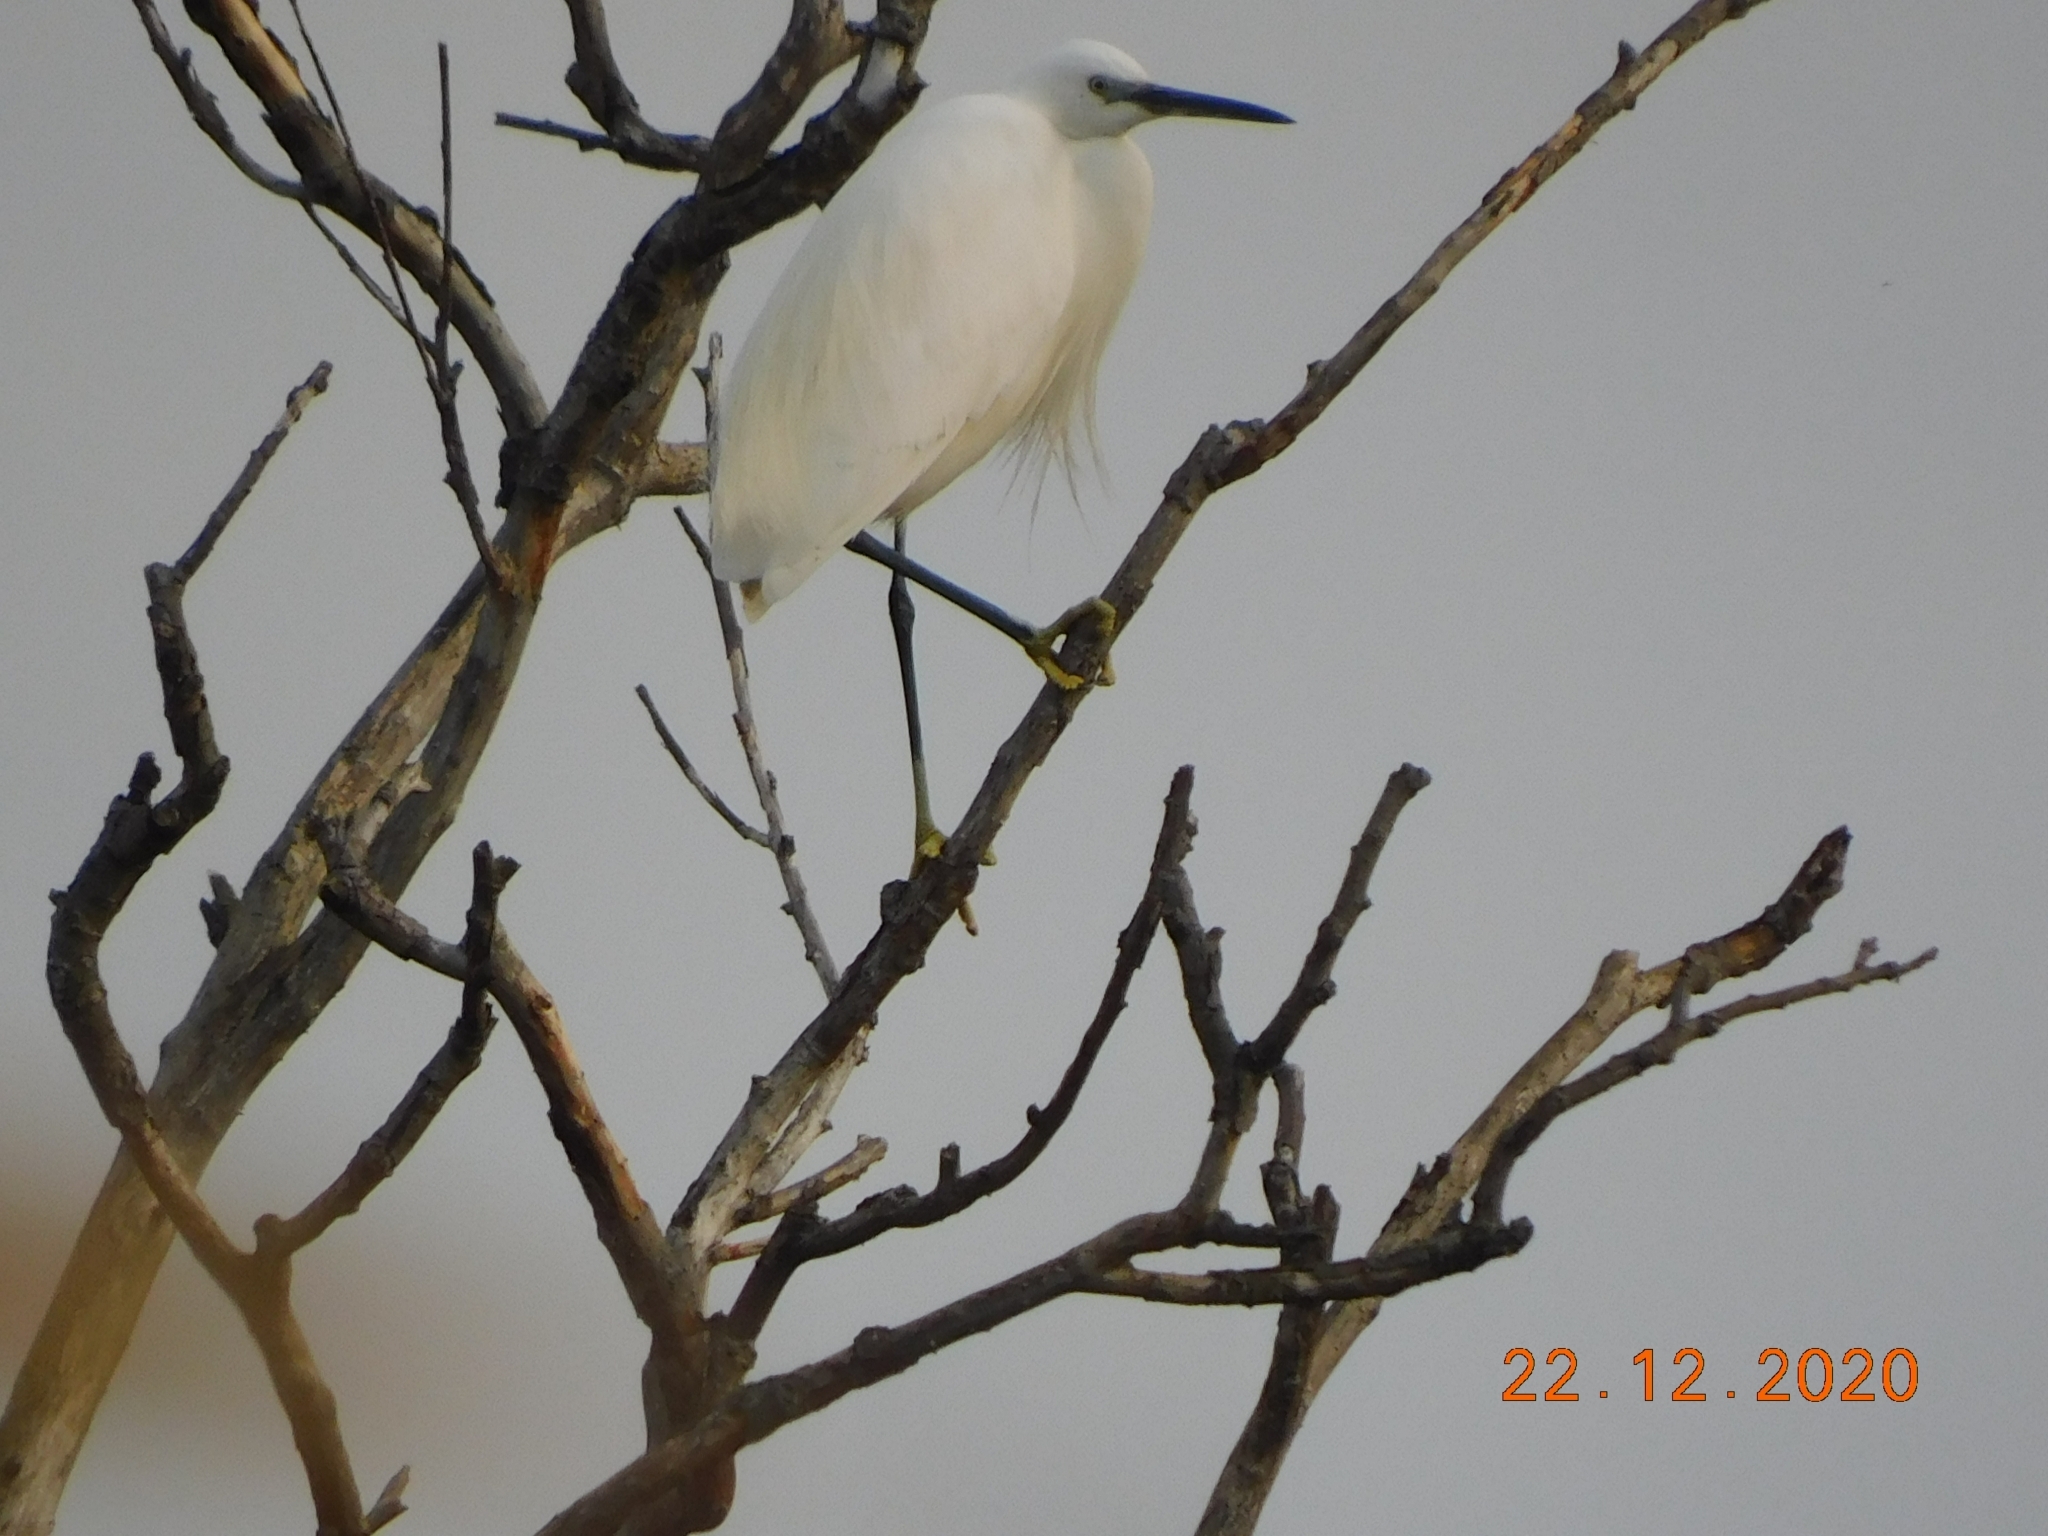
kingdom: Animalia
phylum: Chordata
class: Aves
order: Pelecaniformes
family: Ardeidae
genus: Egretta
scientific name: Egretta garzetta
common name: Little egret
